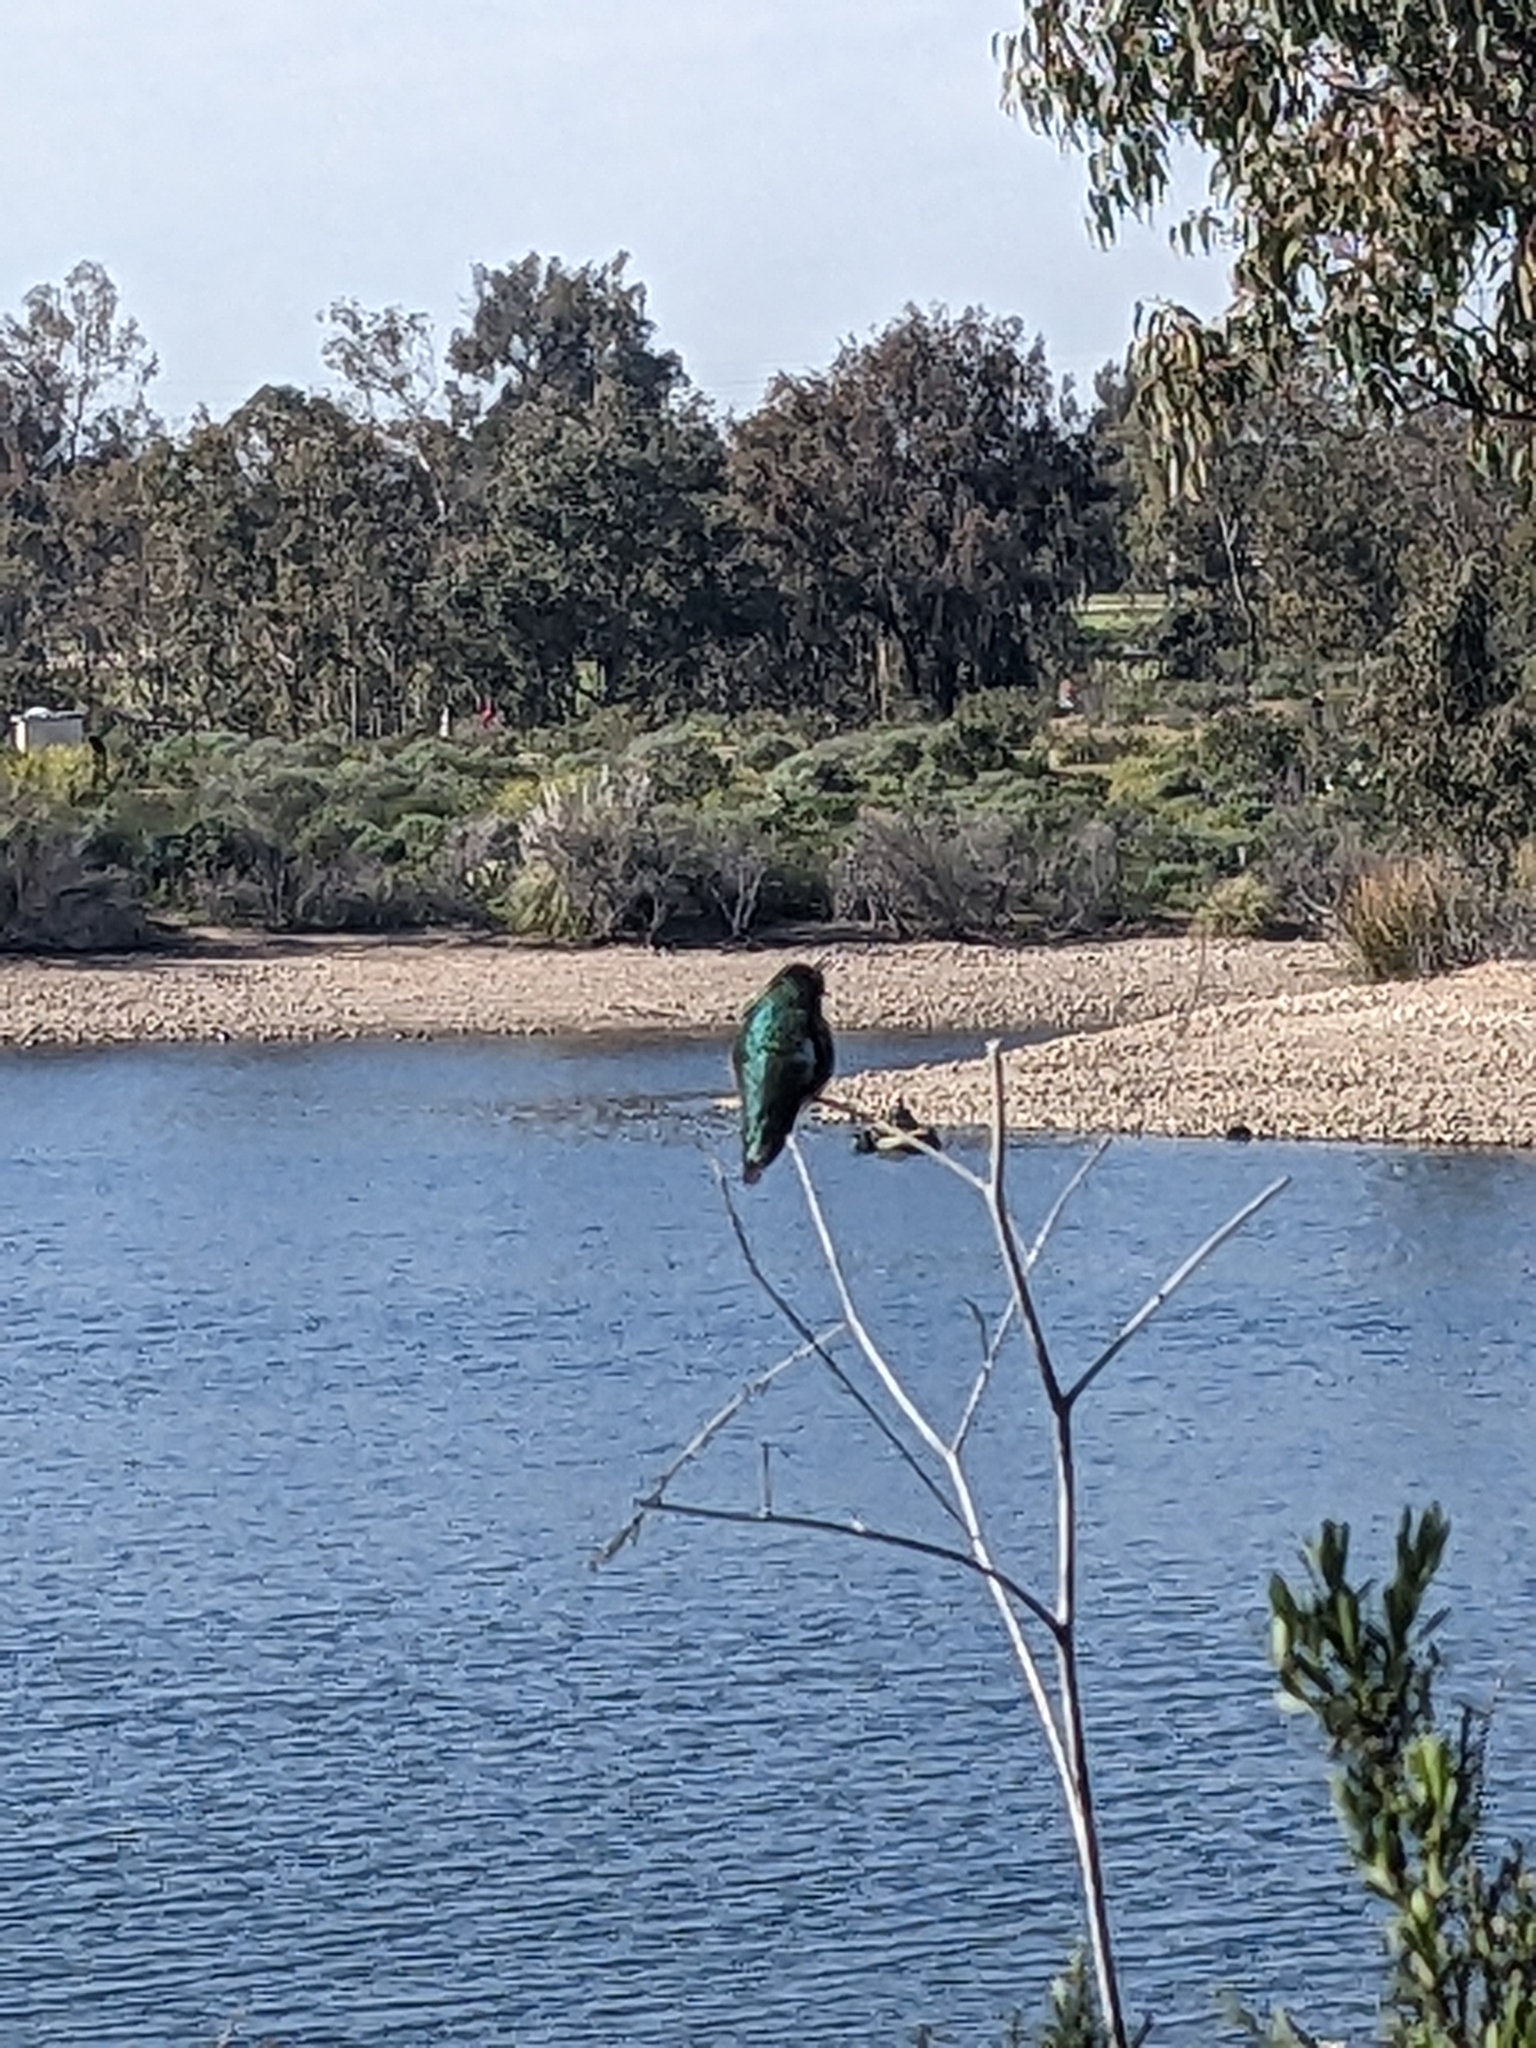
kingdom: Animalia
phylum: Chordata
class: Aves
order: Apodiformes
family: Trochilidae
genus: Calypte
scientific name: Calypte anna
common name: Anna's hummingbird
